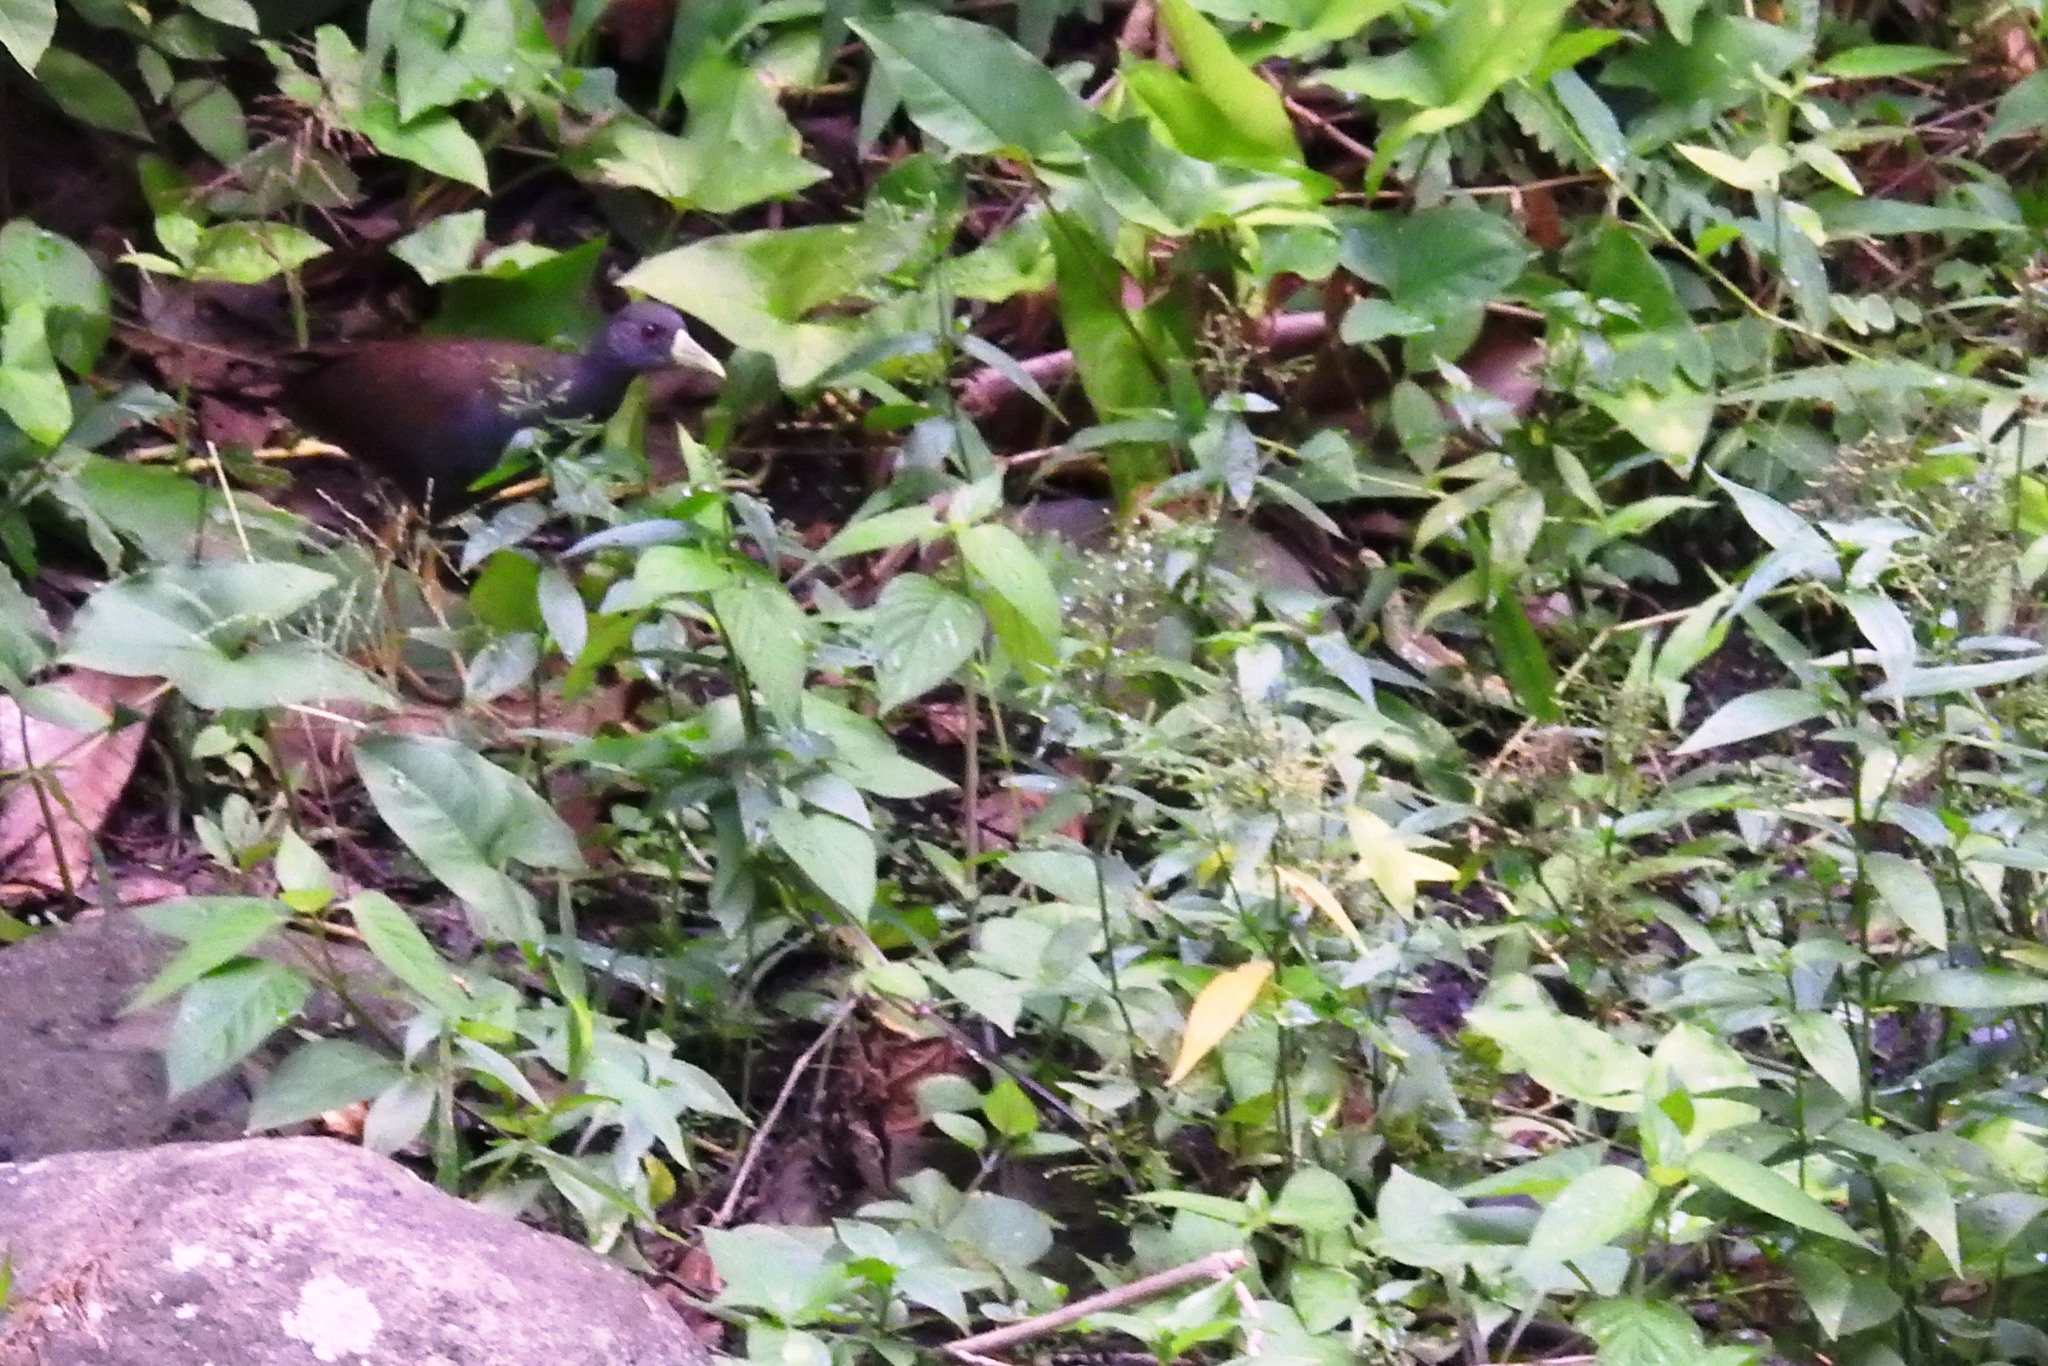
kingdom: Animalia
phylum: Chordata
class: Aves
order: Gruiformes
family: Rallidae
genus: Amaurornis
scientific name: Amaurornis olivacea
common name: Plain bush-hen
